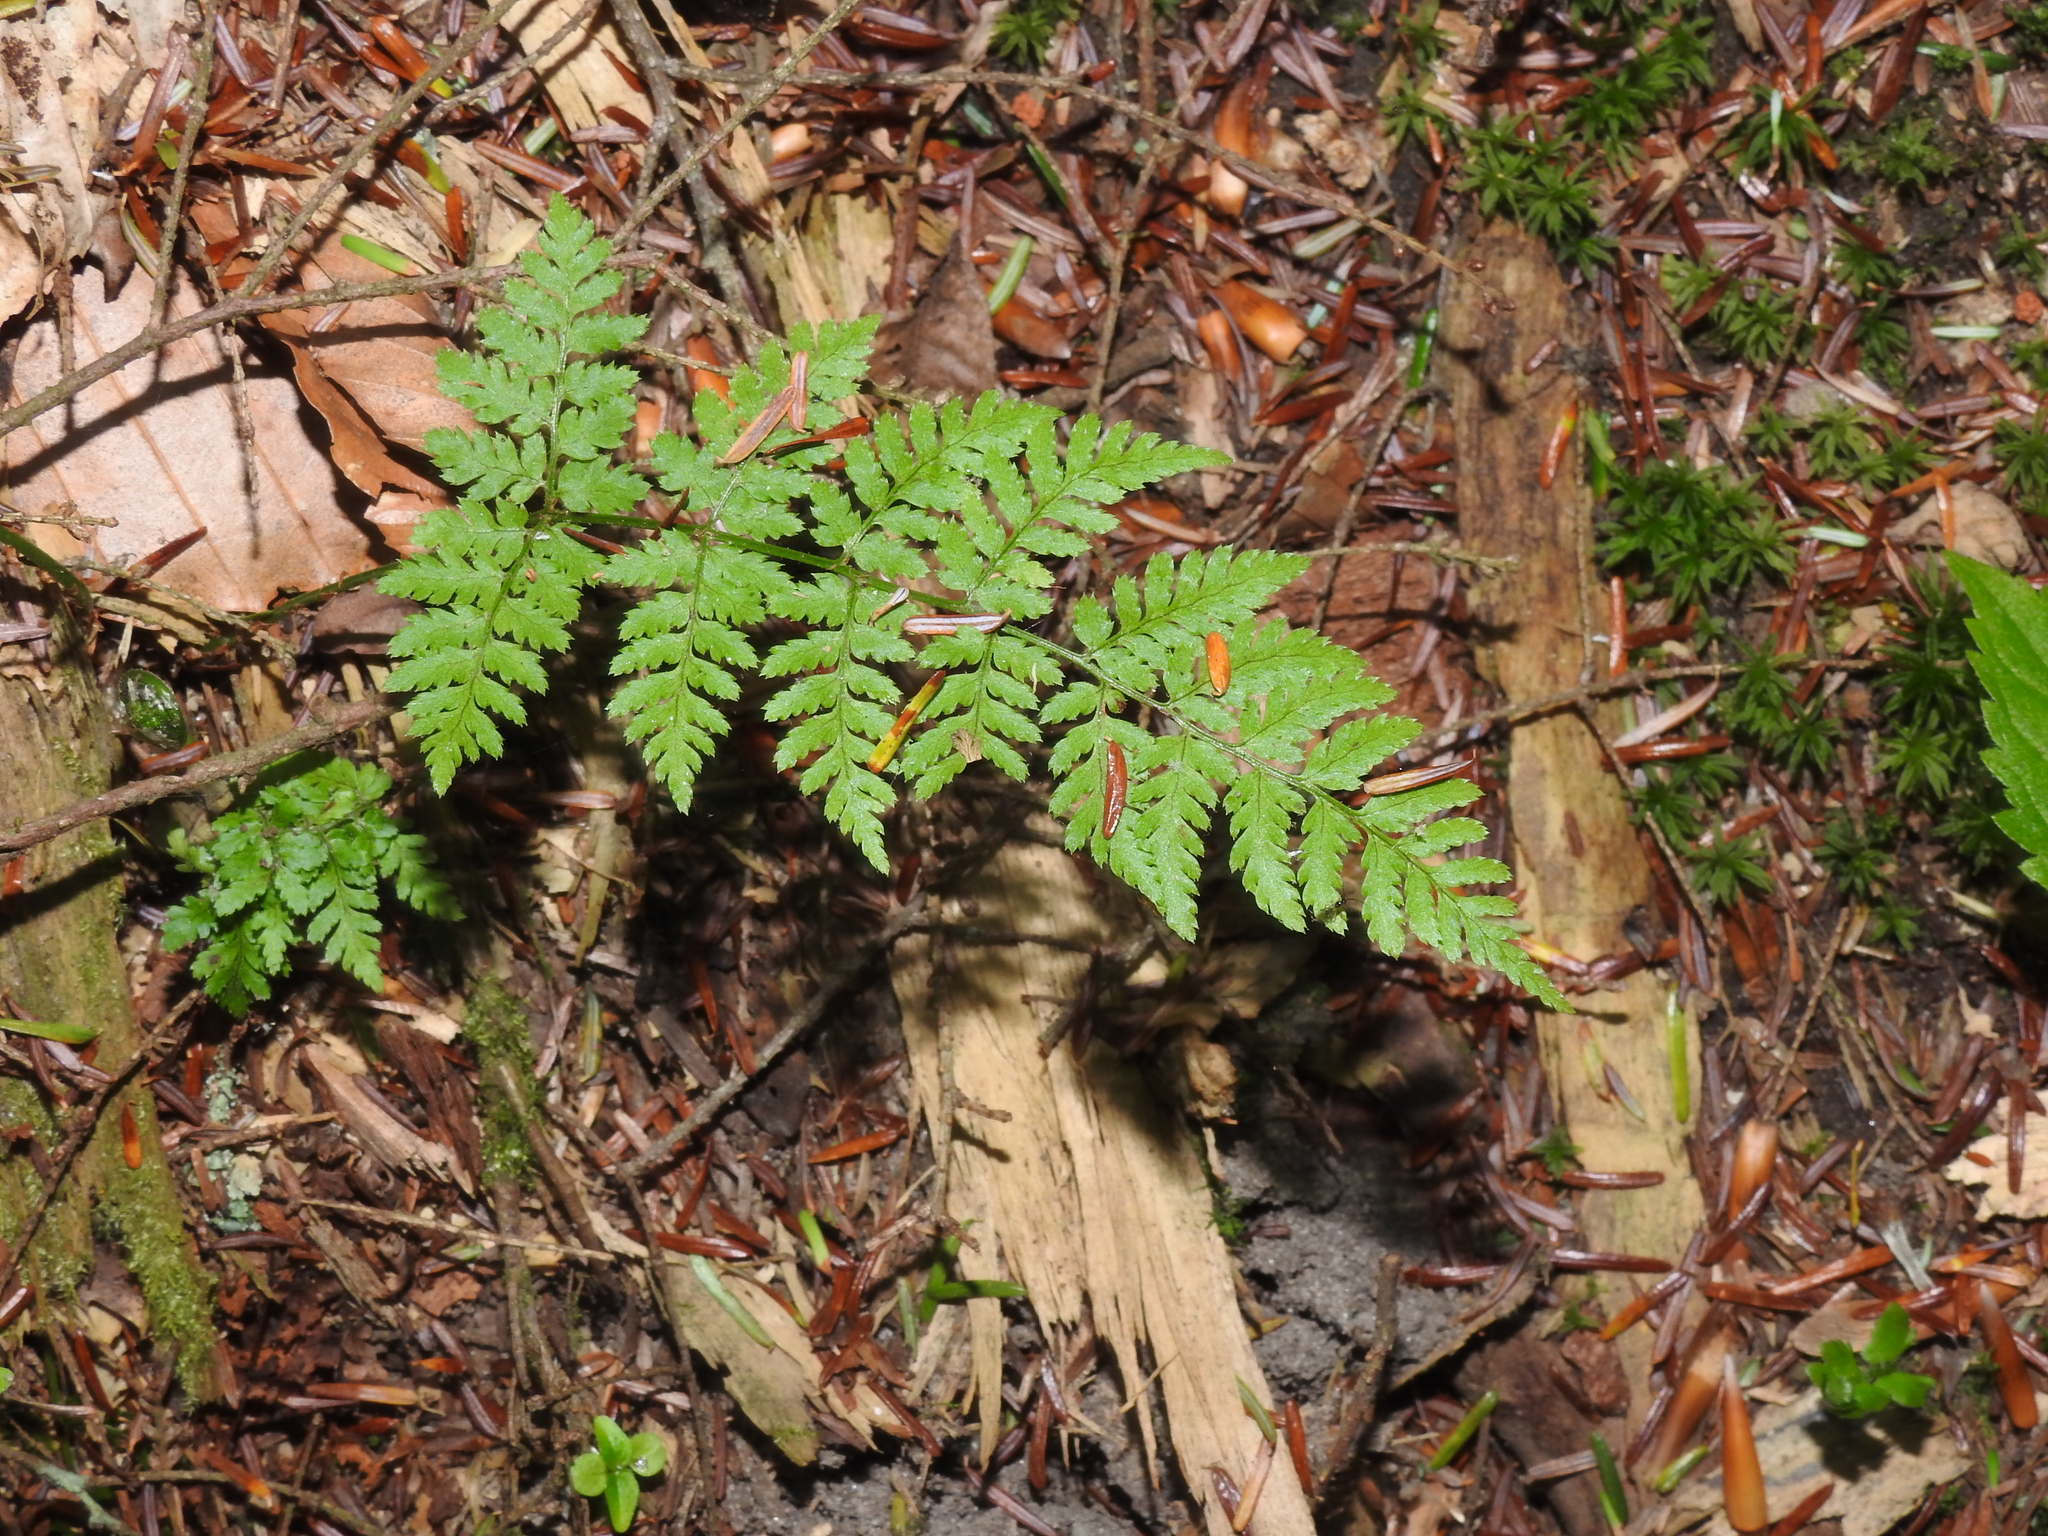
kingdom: Plantae
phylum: Tracheophyta
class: Polypodiopsida
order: Polypodiales
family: Dryopteridaceae
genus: Dryopteris
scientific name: Dryopteris intermedia
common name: Evergreen wood fern
